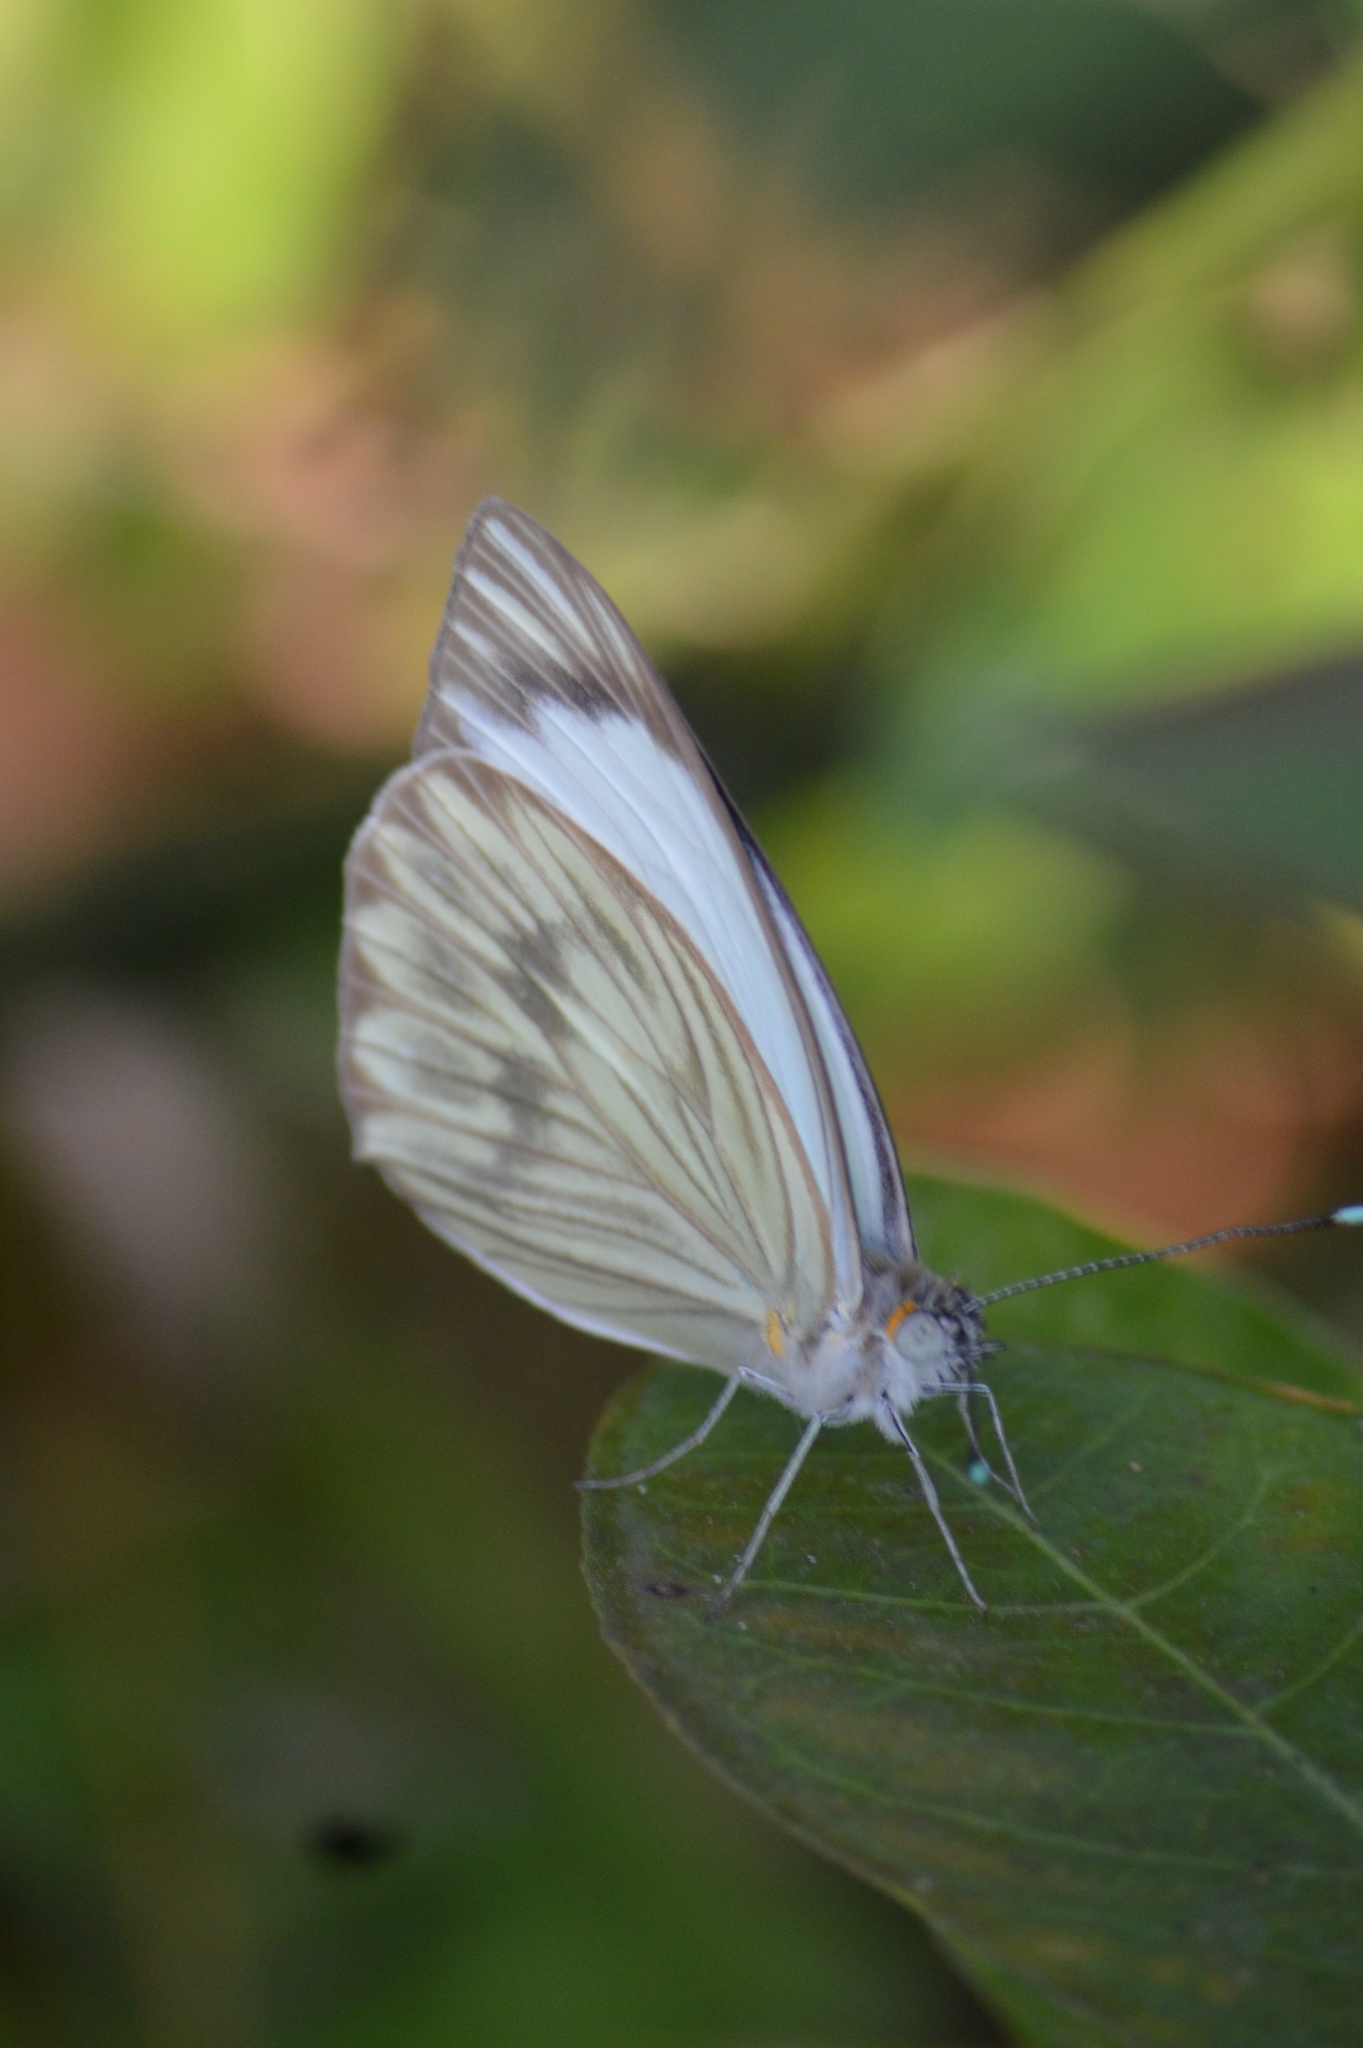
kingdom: Animalia
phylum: Arthropoda
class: Insecta
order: Lepidoptera
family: Pieridae
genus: Ascia
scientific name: Ascia monuste
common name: Great southern white
